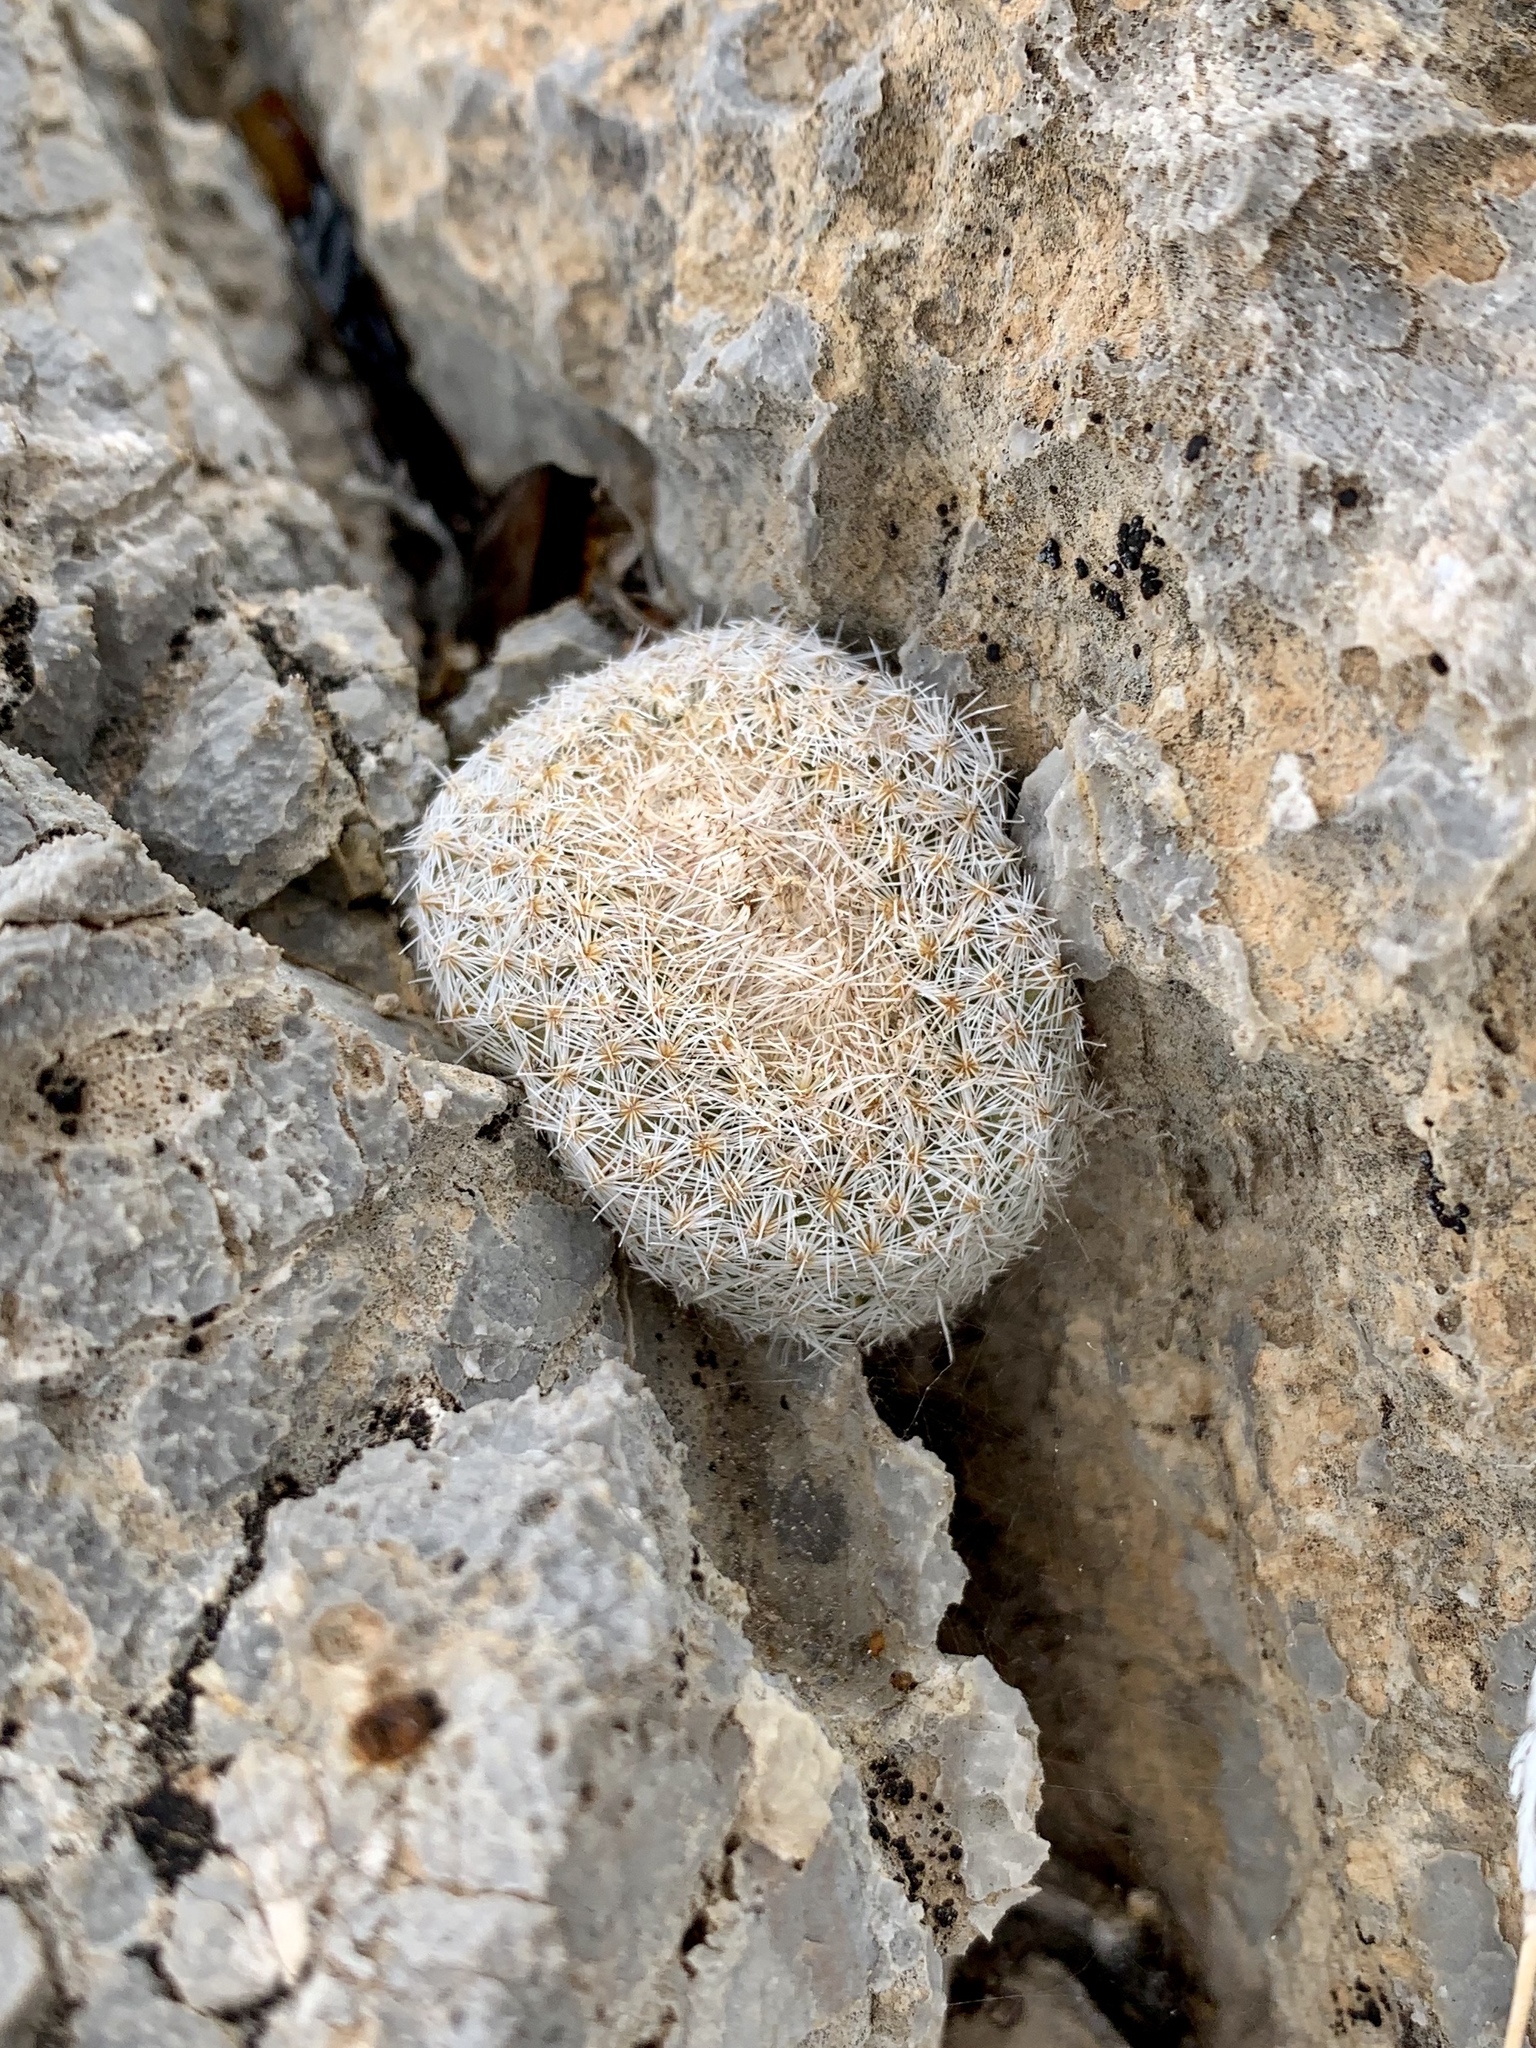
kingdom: Plantae
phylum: Tracheophyta
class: Magnoliopsida
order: Caryophyllales
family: Cactaceae
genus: Epithelantha
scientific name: Epithelantha micromeris
